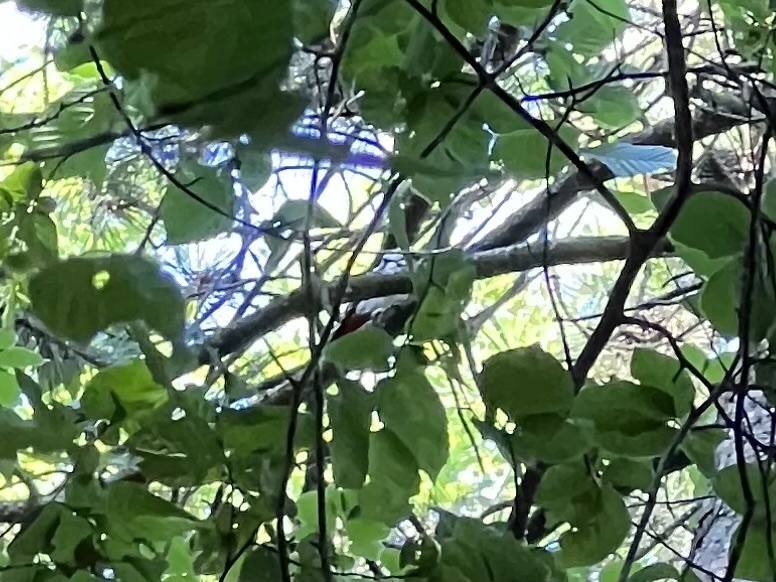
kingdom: Animalia
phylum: Chordata
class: Aves
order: Piciformes
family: Picidae
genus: Dendrocopos
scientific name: Dendrocopos major
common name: Great spotted woodpecker
